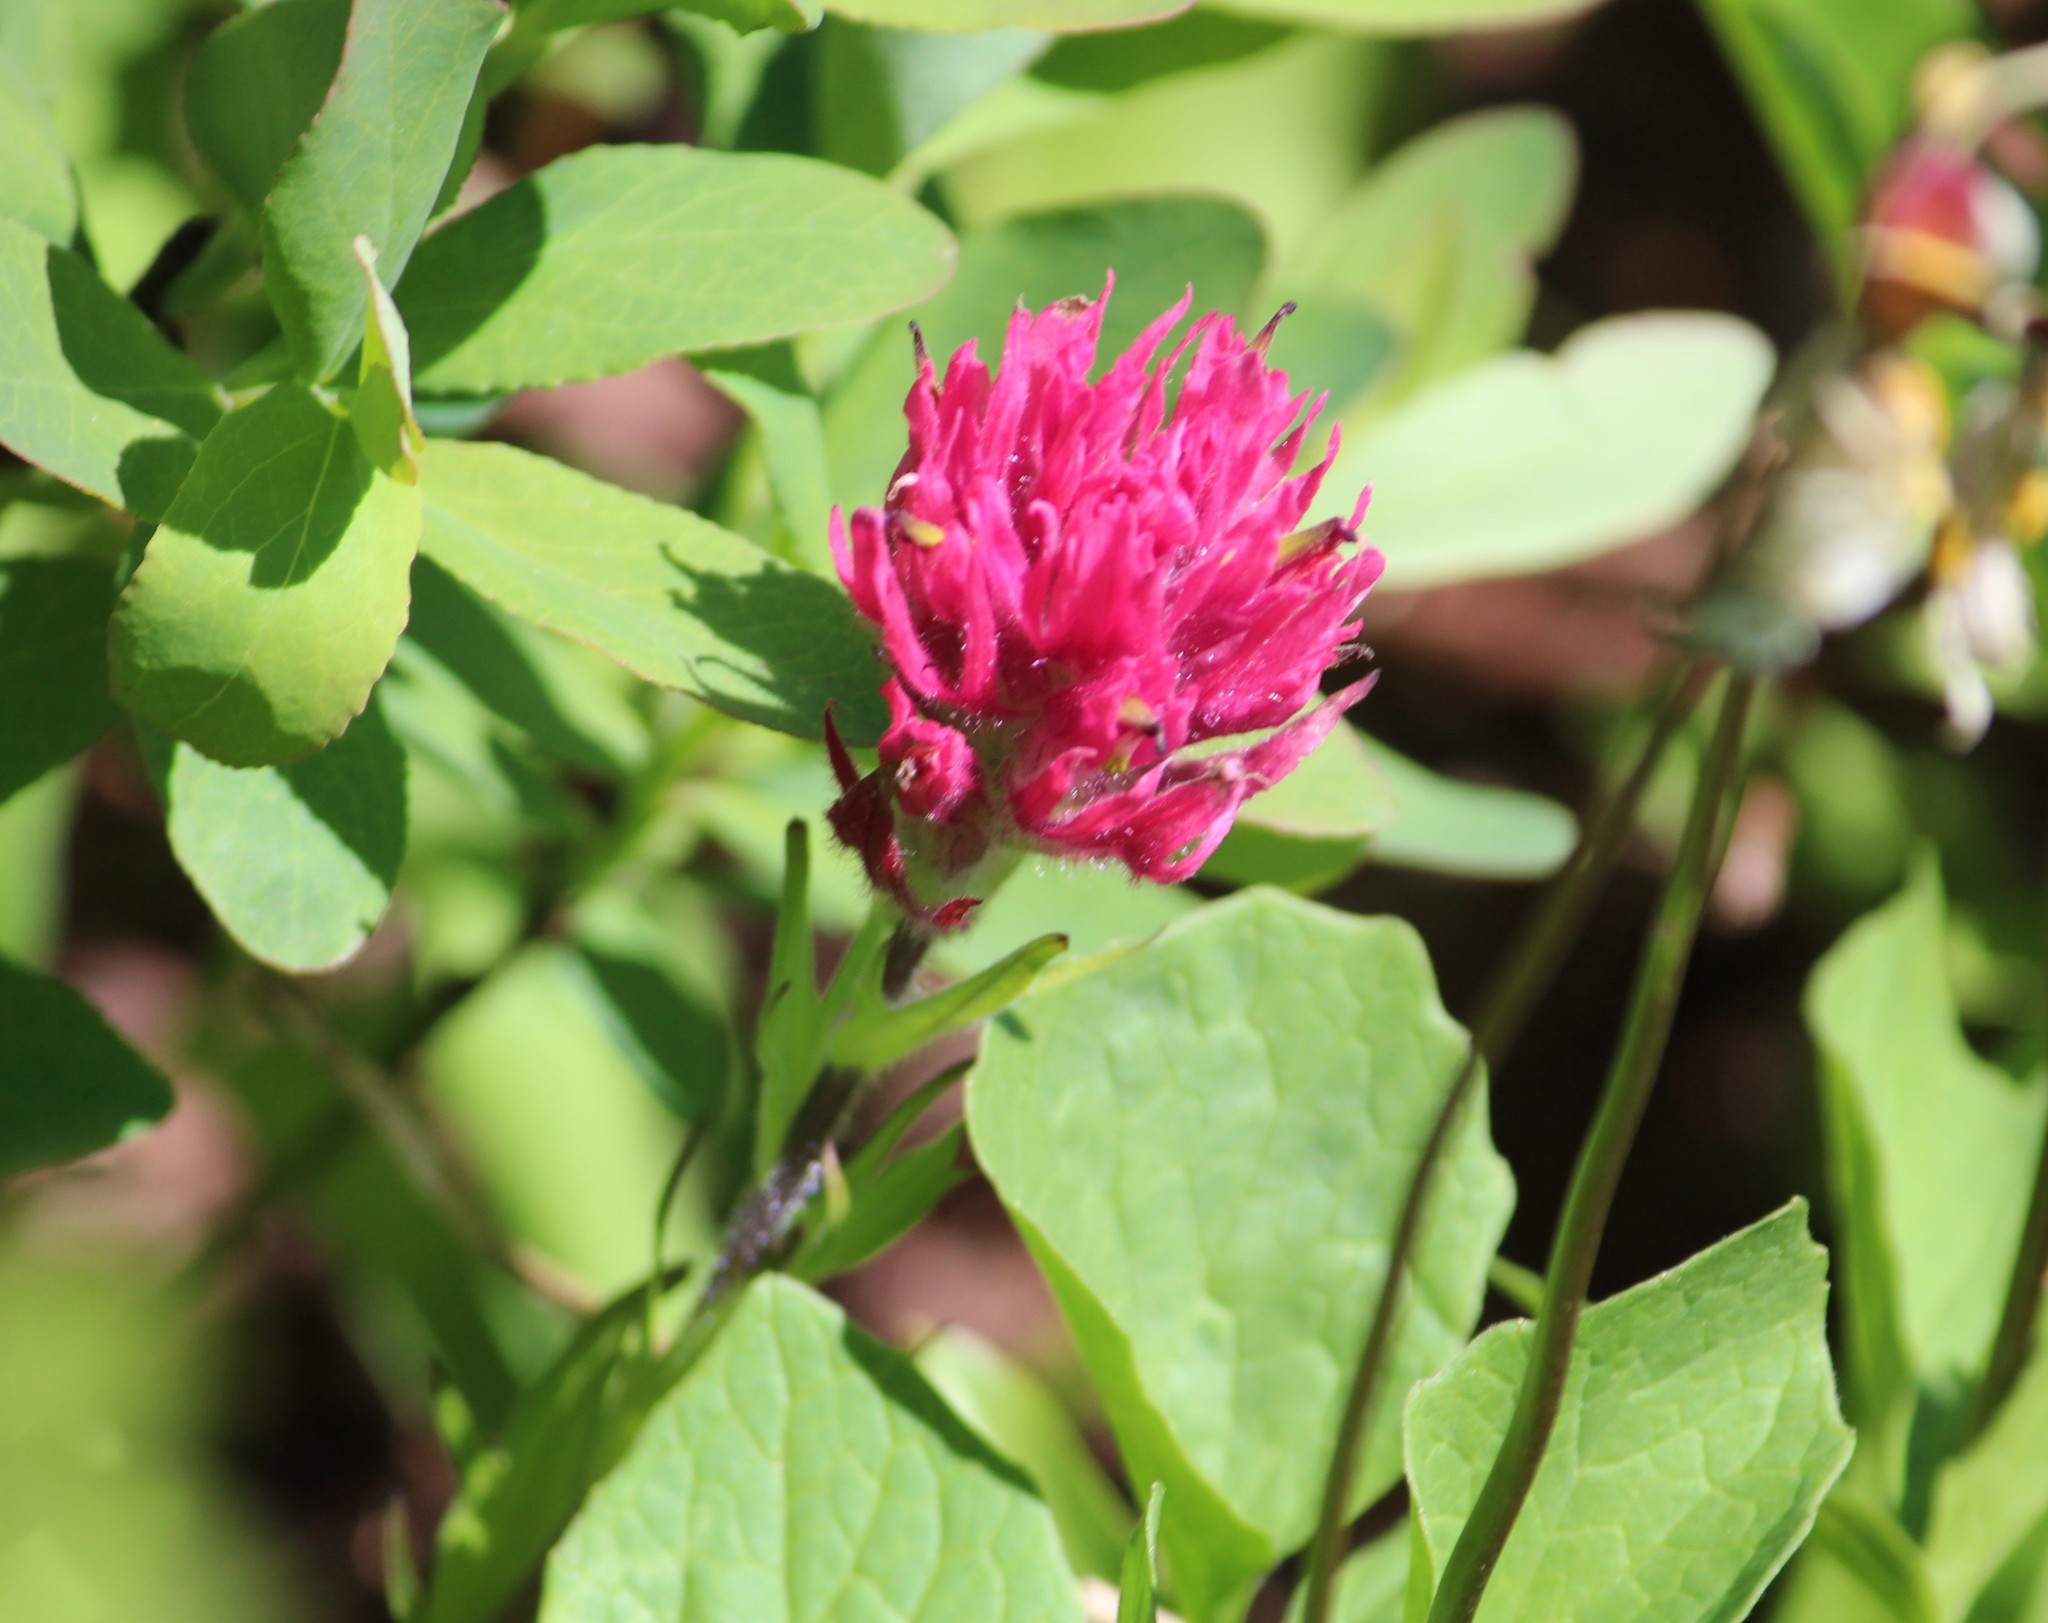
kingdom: Plantae
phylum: Tracheophyta
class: Magnoliopsida
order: Lamiales
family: Orobanchaceae
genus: Castilleja
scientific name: Castilleja parviflora
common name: Mountain paintbrush
